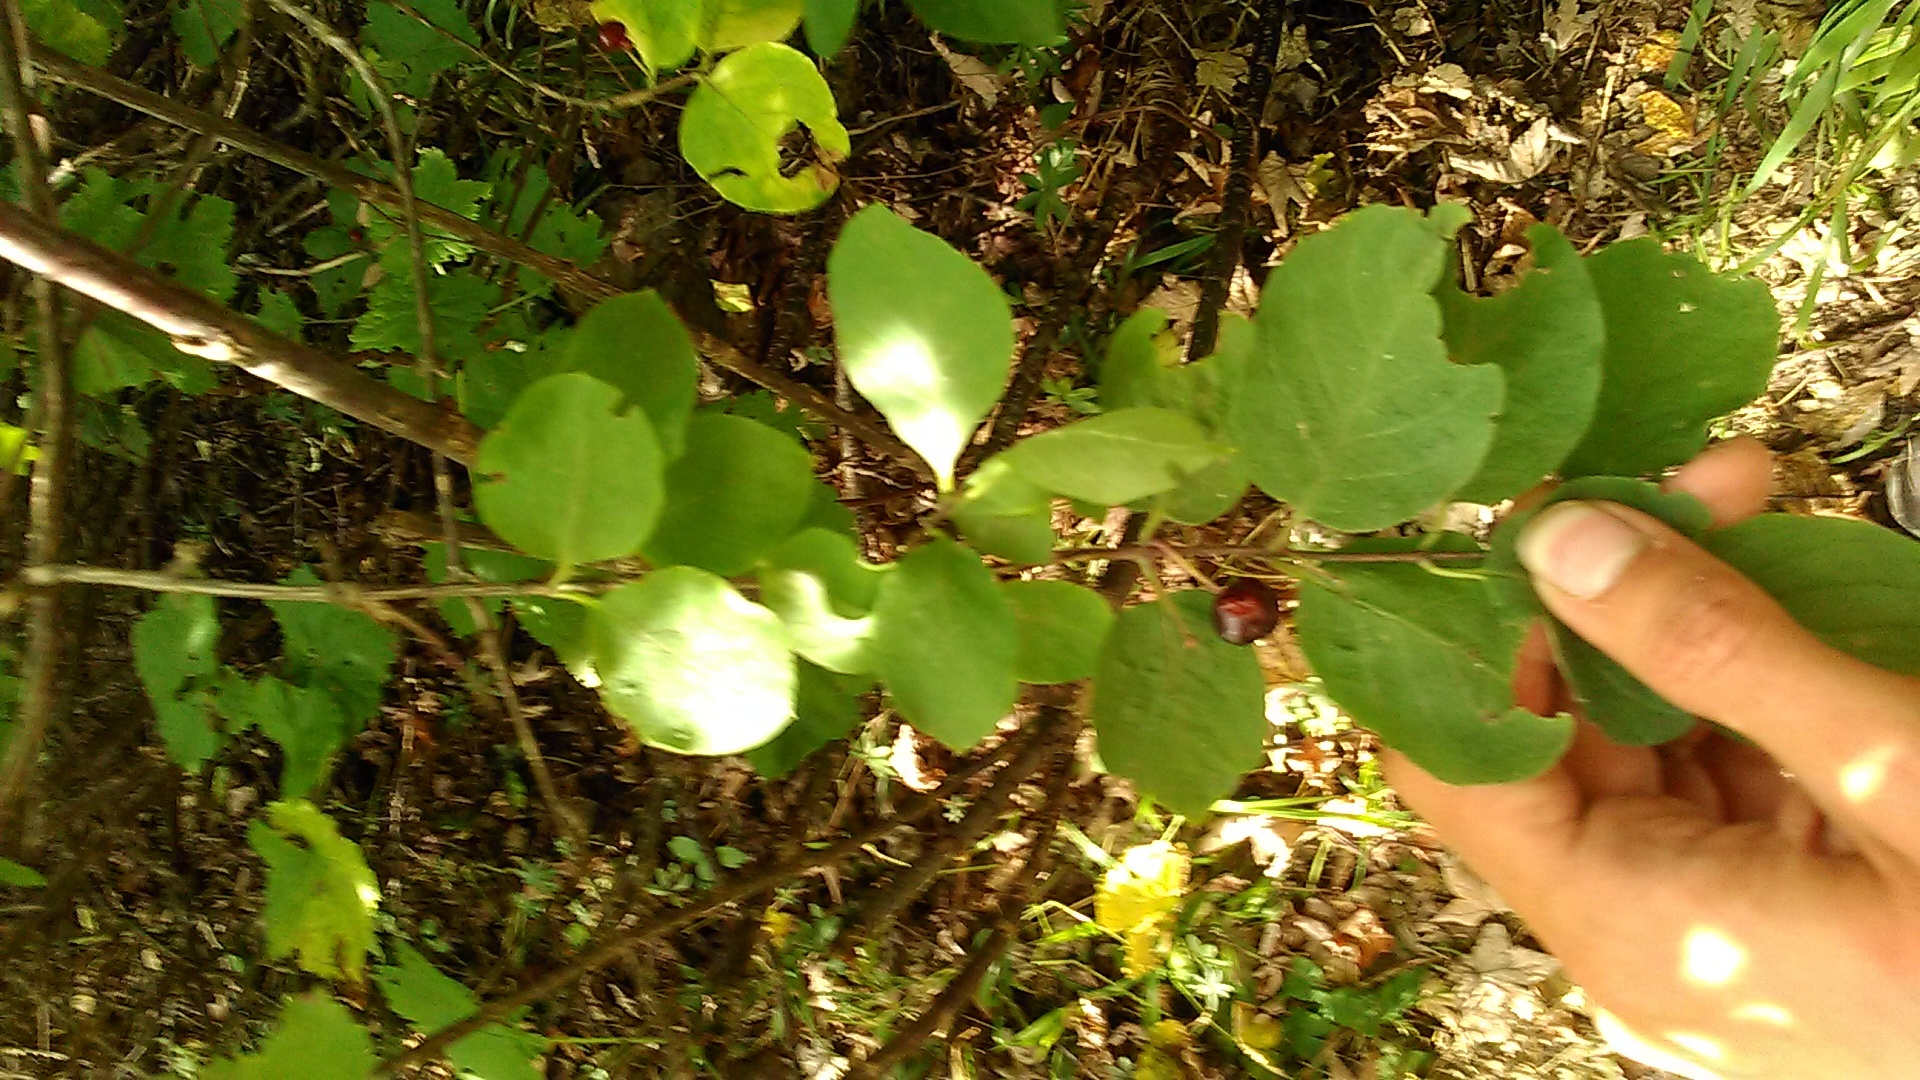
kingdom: Plantae
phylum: Tracheophyta
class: Magnoliopsida
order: Dipsacales
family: Caprifoliaceae
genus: Lonicera
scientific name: Lonicera steveniana
